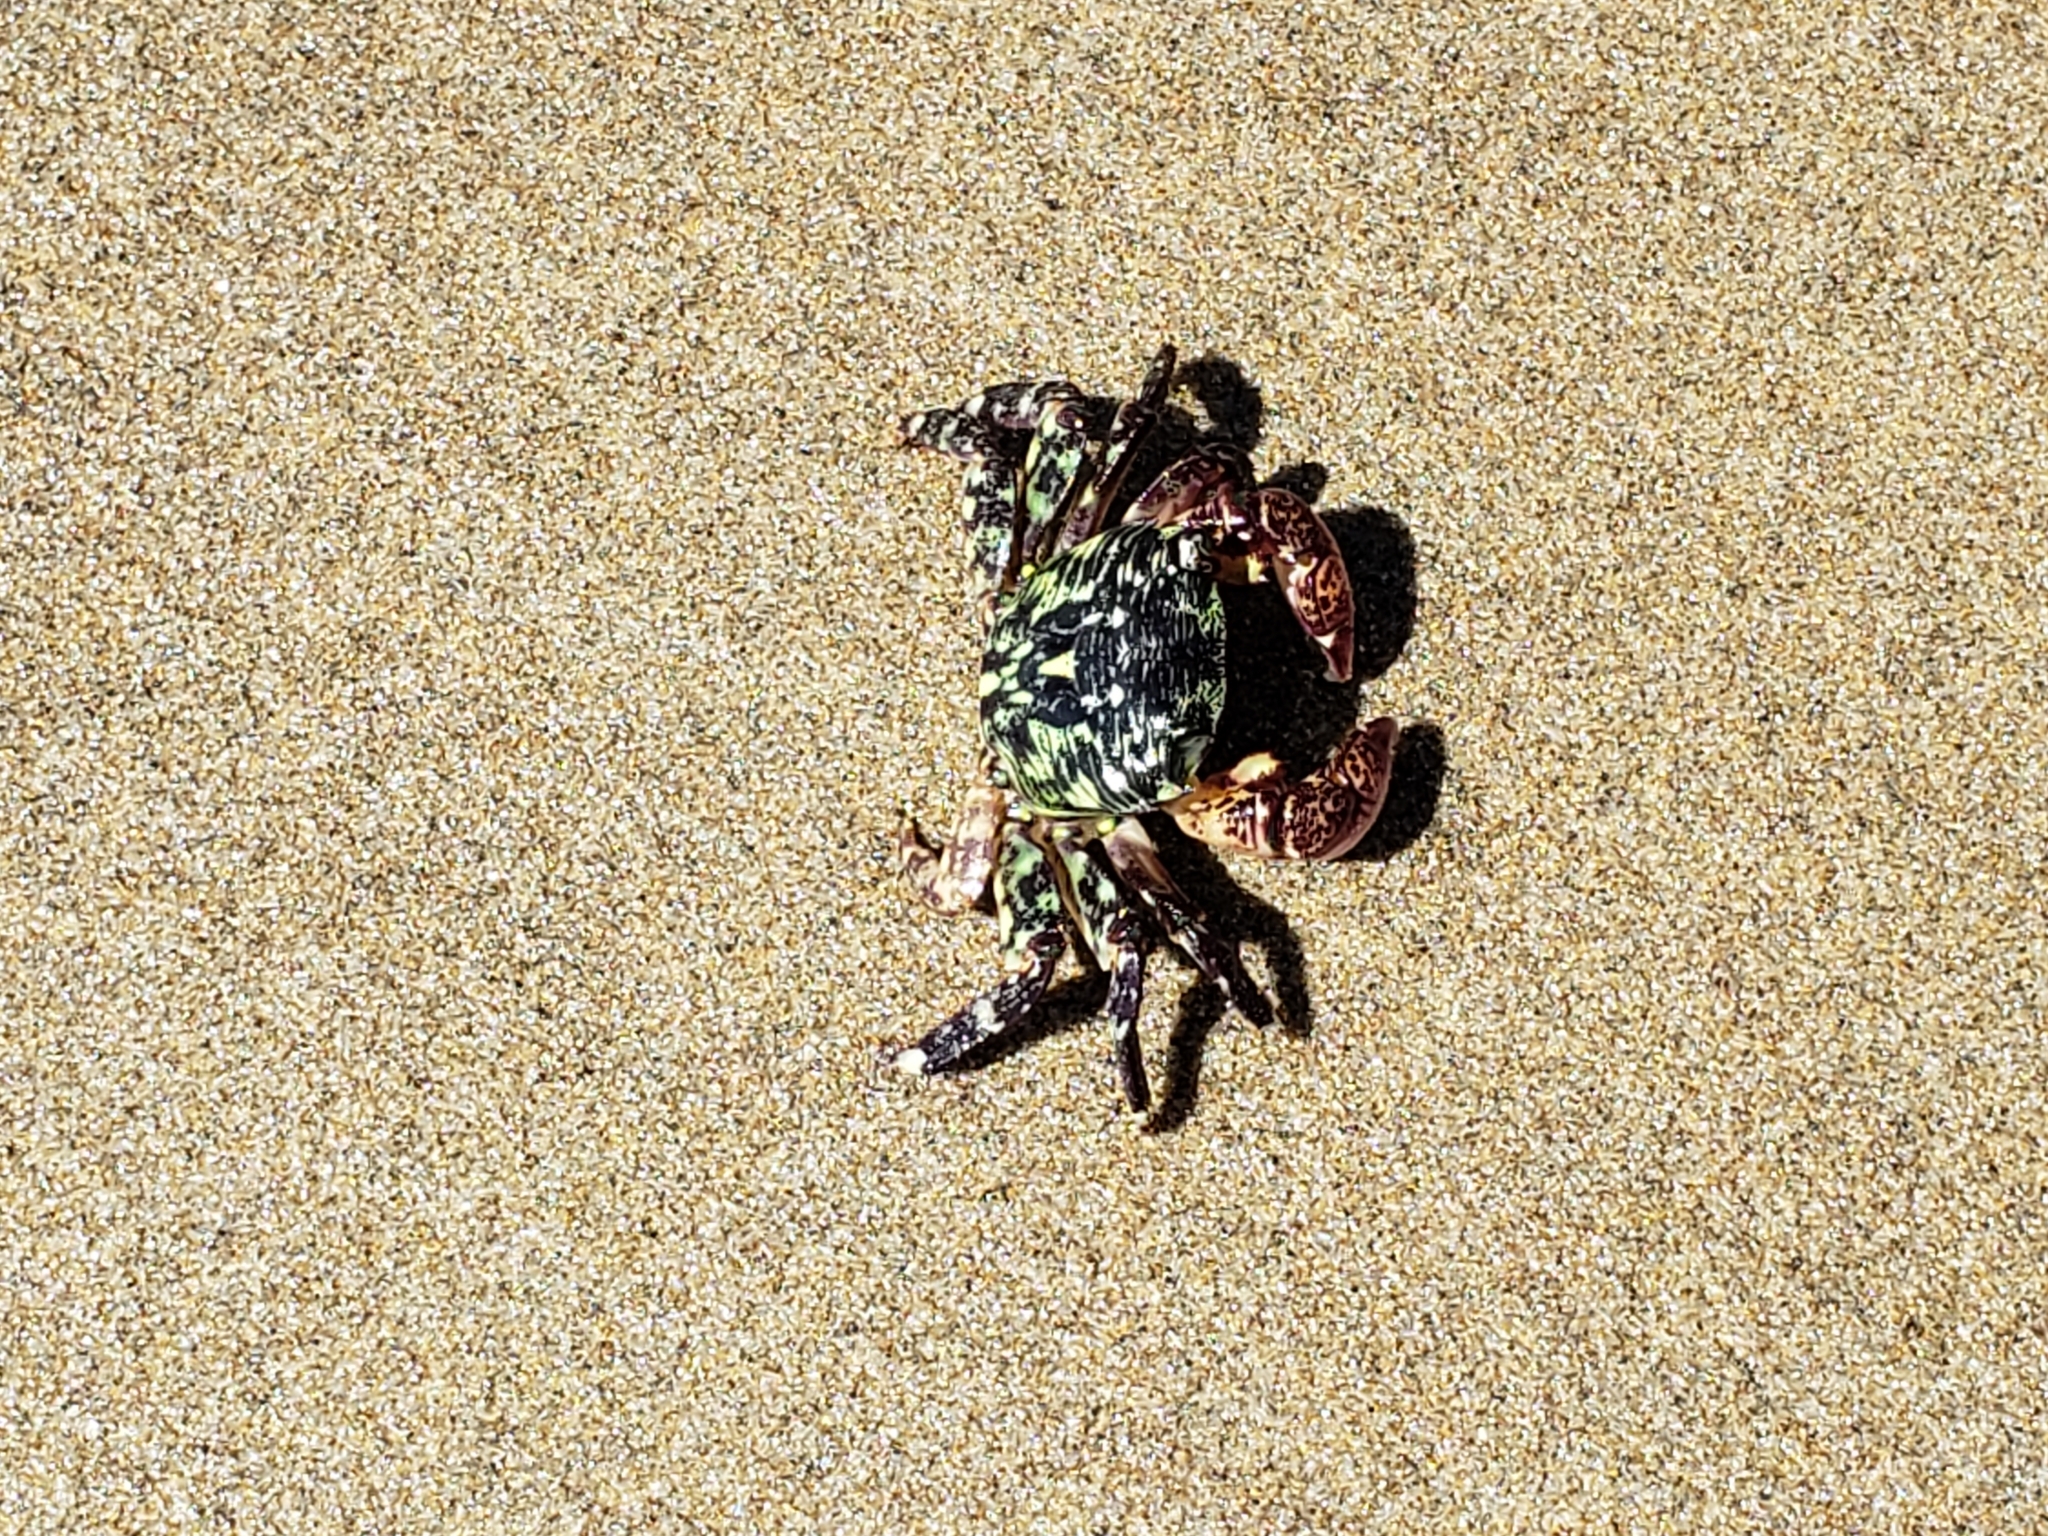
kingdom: Animalia
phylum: Arthropoda
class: Malacostraca
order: Decapoda
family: Grapsidae
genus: Pachygrapsus
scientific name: Pachygrapsus crassipes
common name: Striped shore crab
